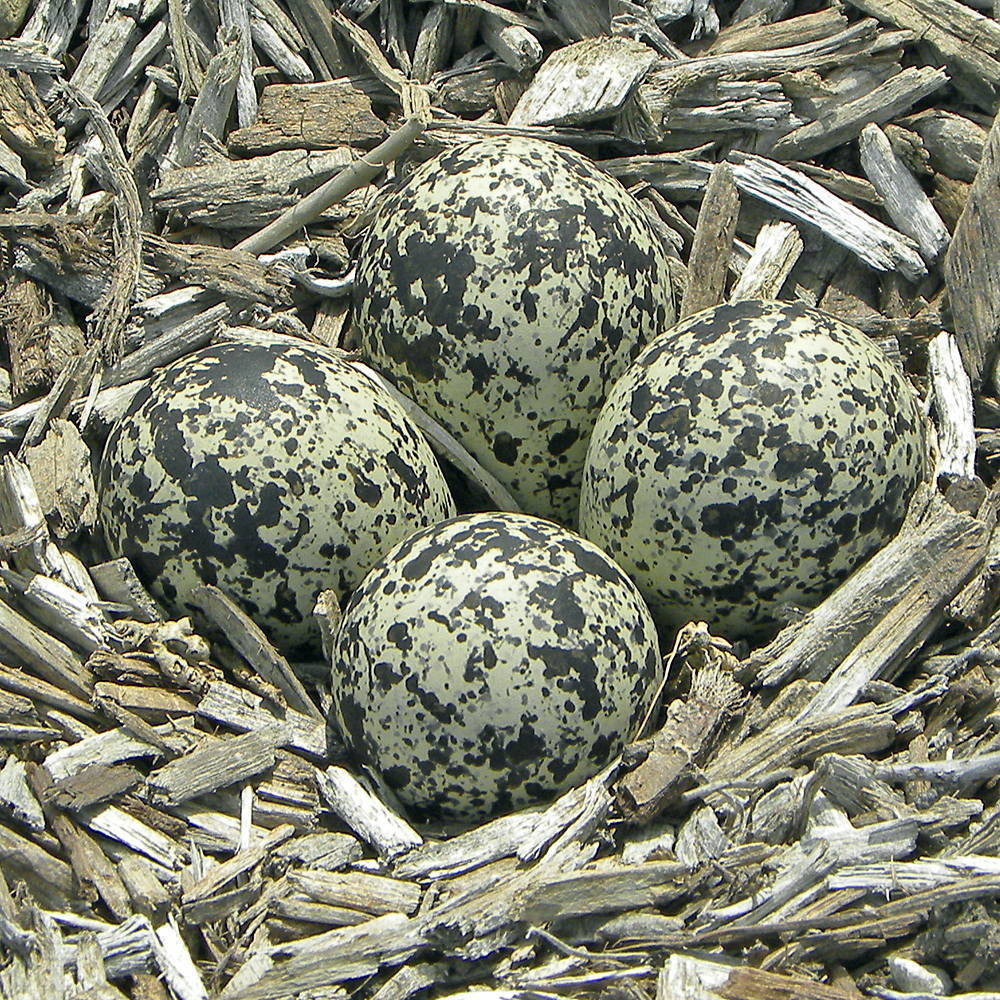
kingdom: Animalia
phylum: Chordata
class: Aves
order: Charadriiformes
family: Charadriidae
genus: Charadrius
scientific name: Charadrius vociferus
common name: Killdeer
